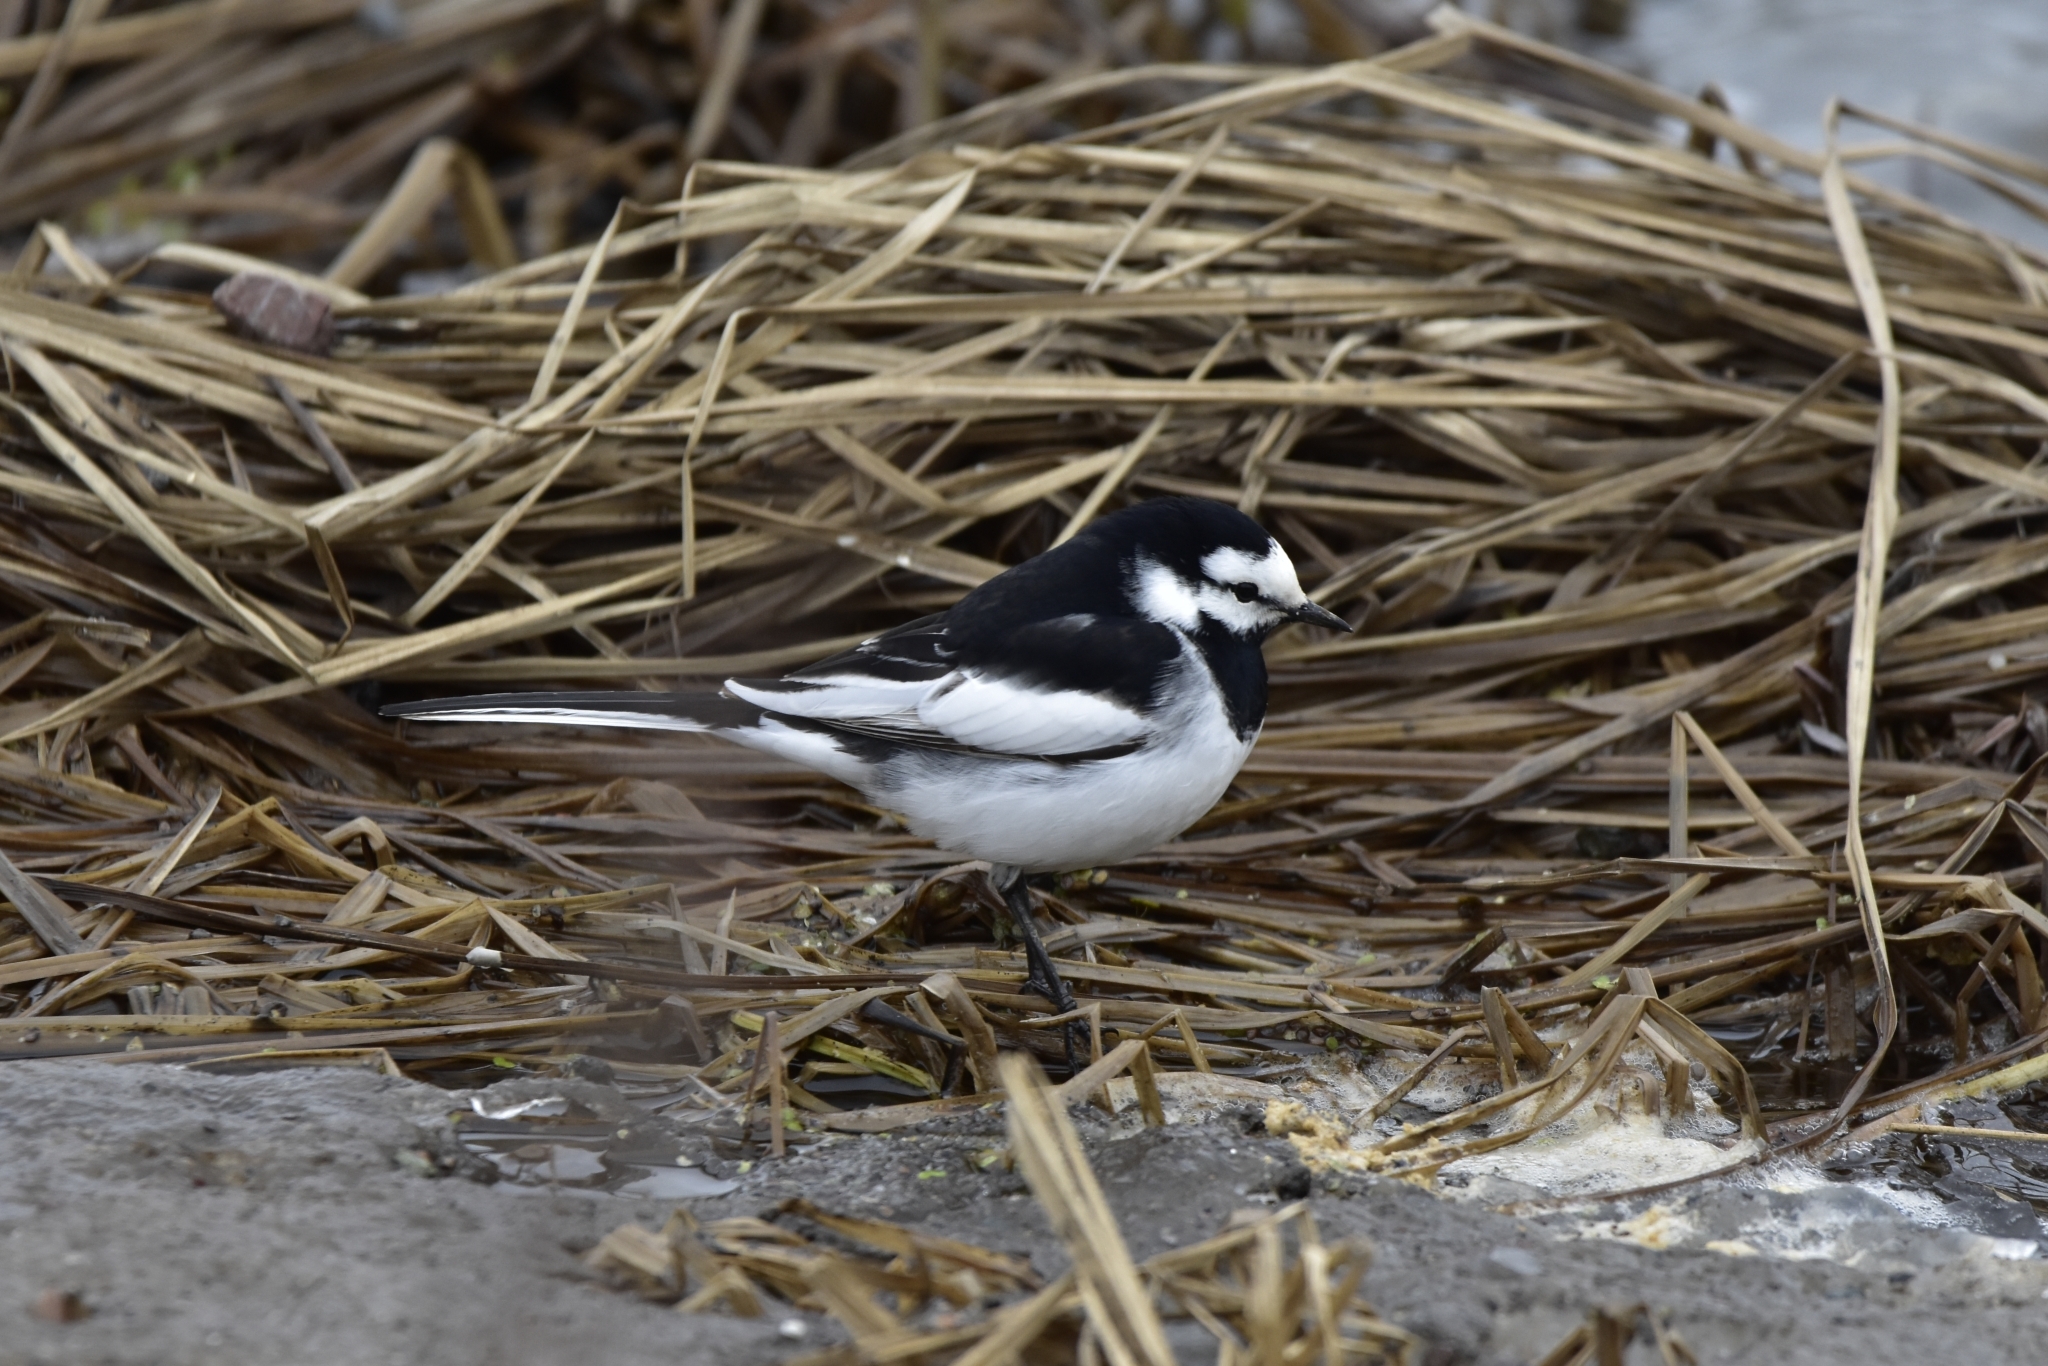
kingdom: Animalia
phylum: Chordata
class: Aves
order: Passeriformes
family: Motacillidae
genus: Motacilla
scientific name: Motacilla alba
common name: White wagtail
